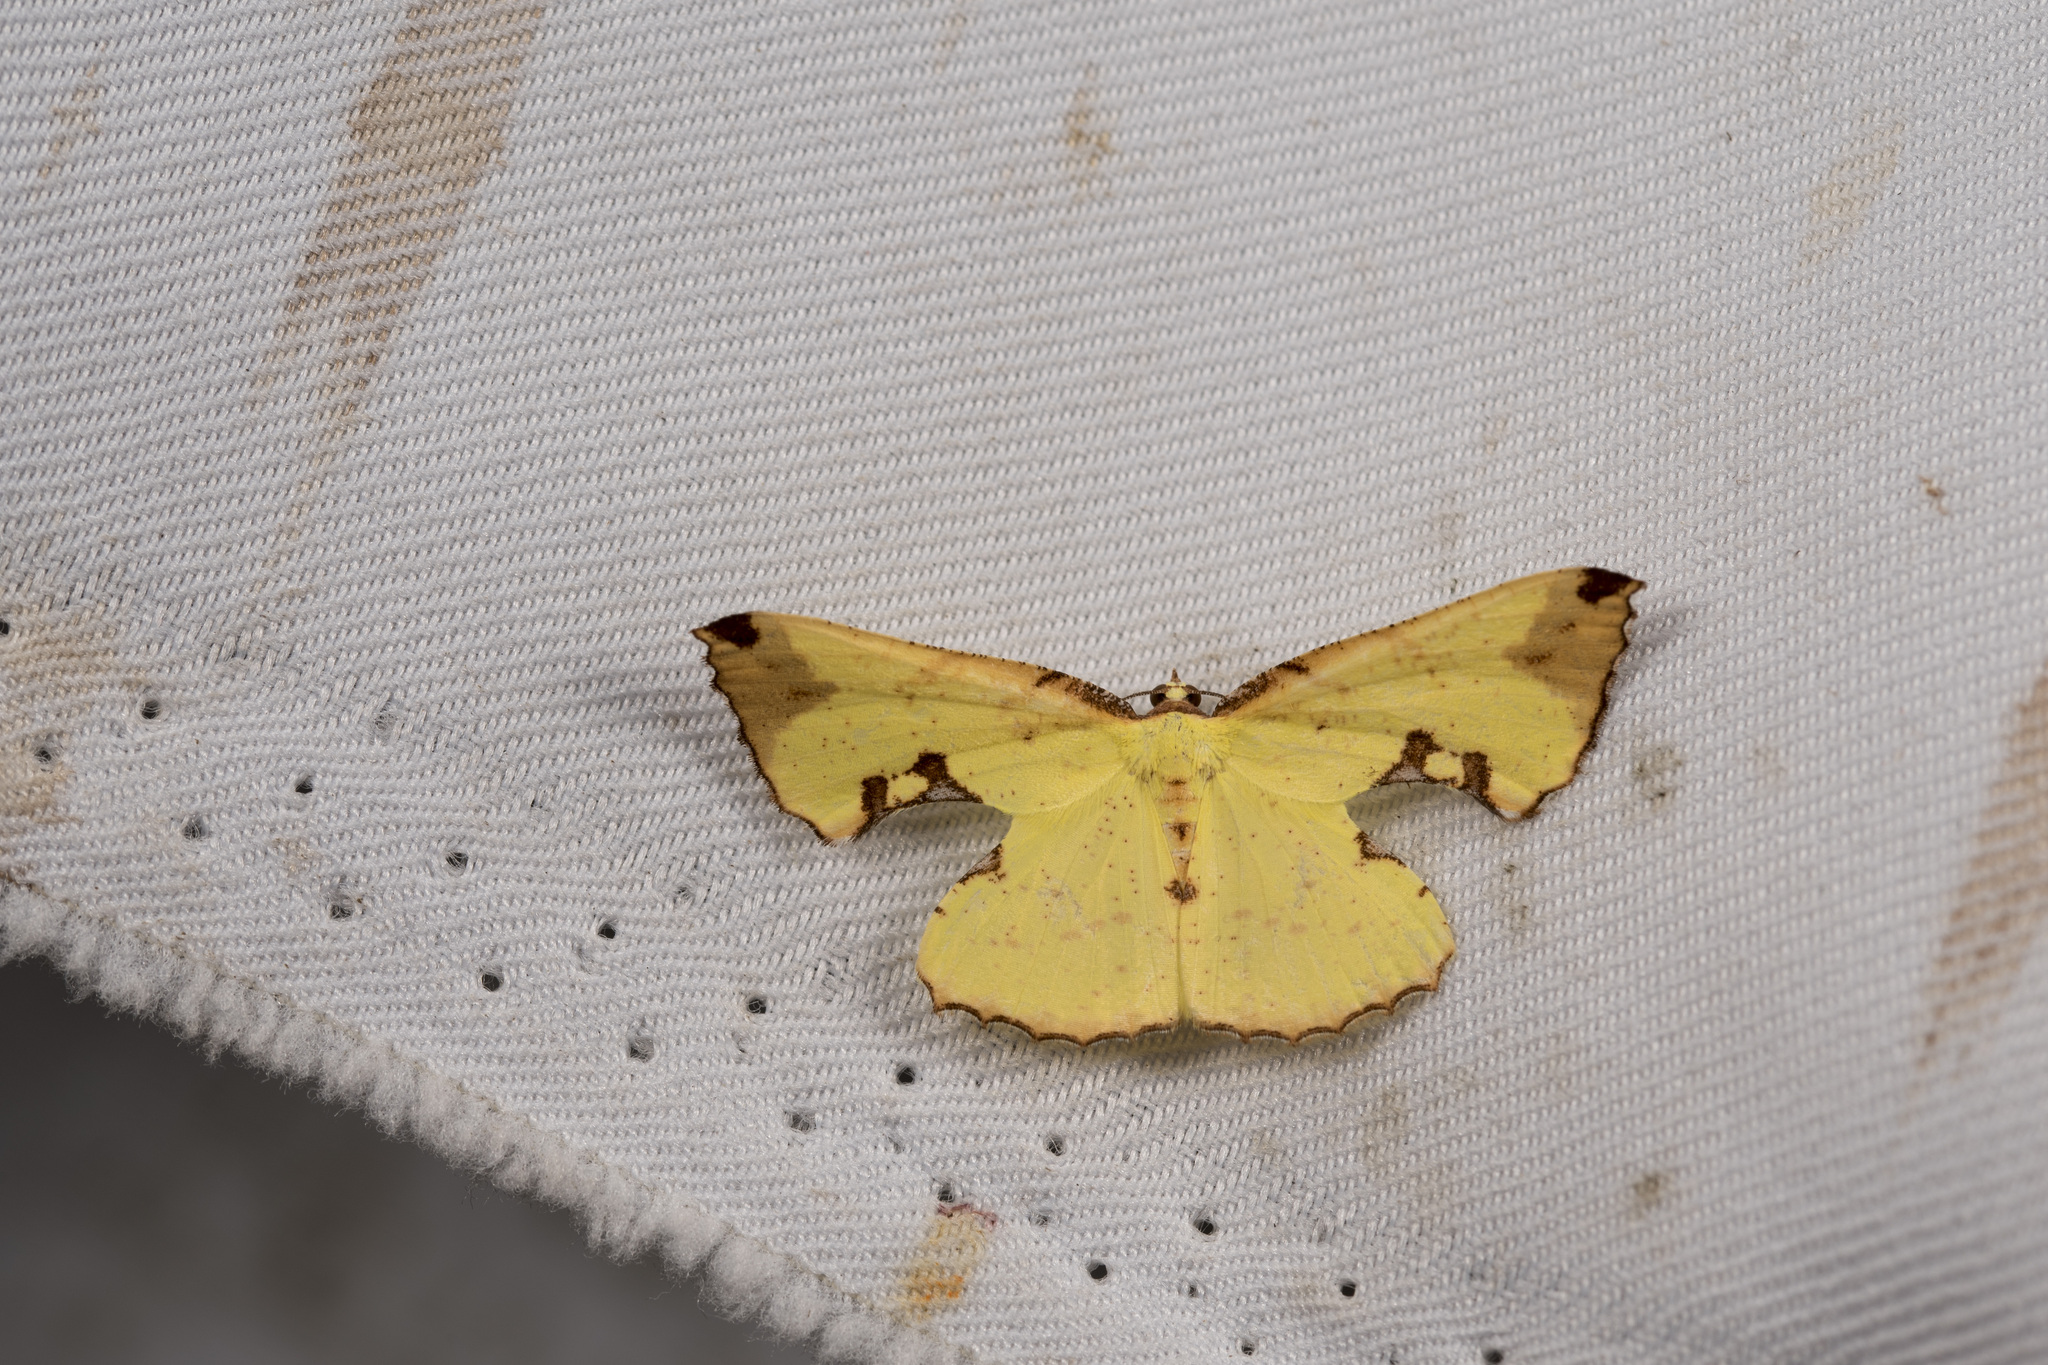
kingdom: Animalia
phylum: Arthropoda
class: Insecta
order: Lepidoptera
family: Geometridae
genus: Corymica
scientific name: Corymica pryeri
